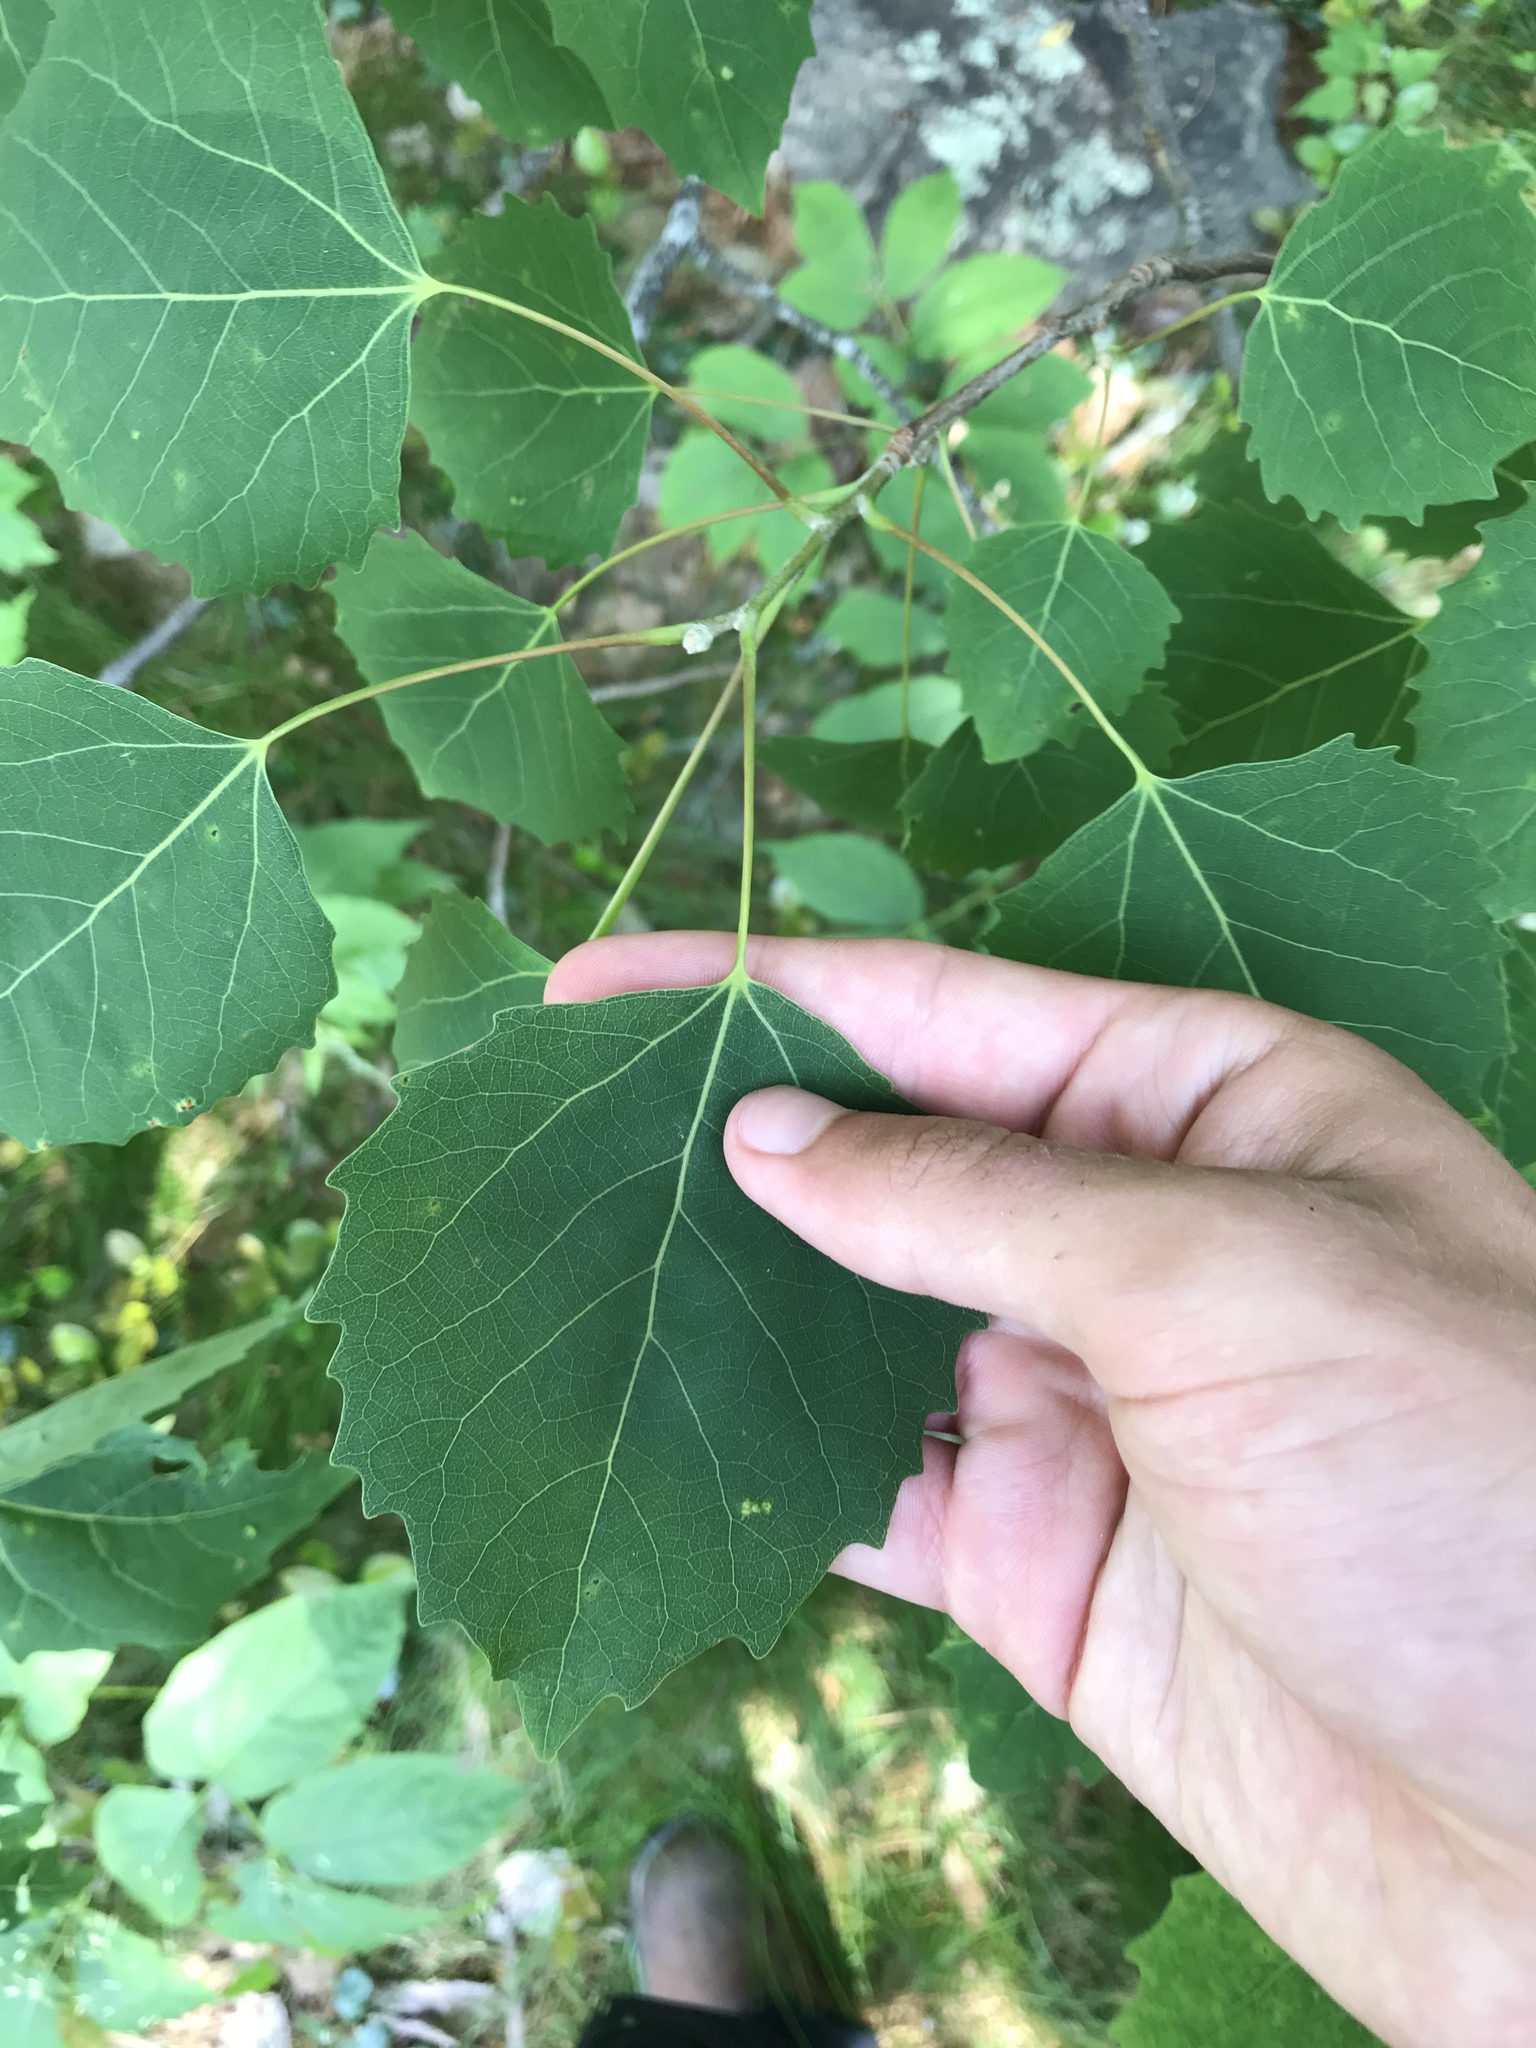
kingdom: Plantae
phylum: Tracheophyta
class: Magnoliopsida
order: Malpighiales
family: Salicaceae
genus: Populus
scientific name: Populus grandidentata
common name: Bigtooth aspen
